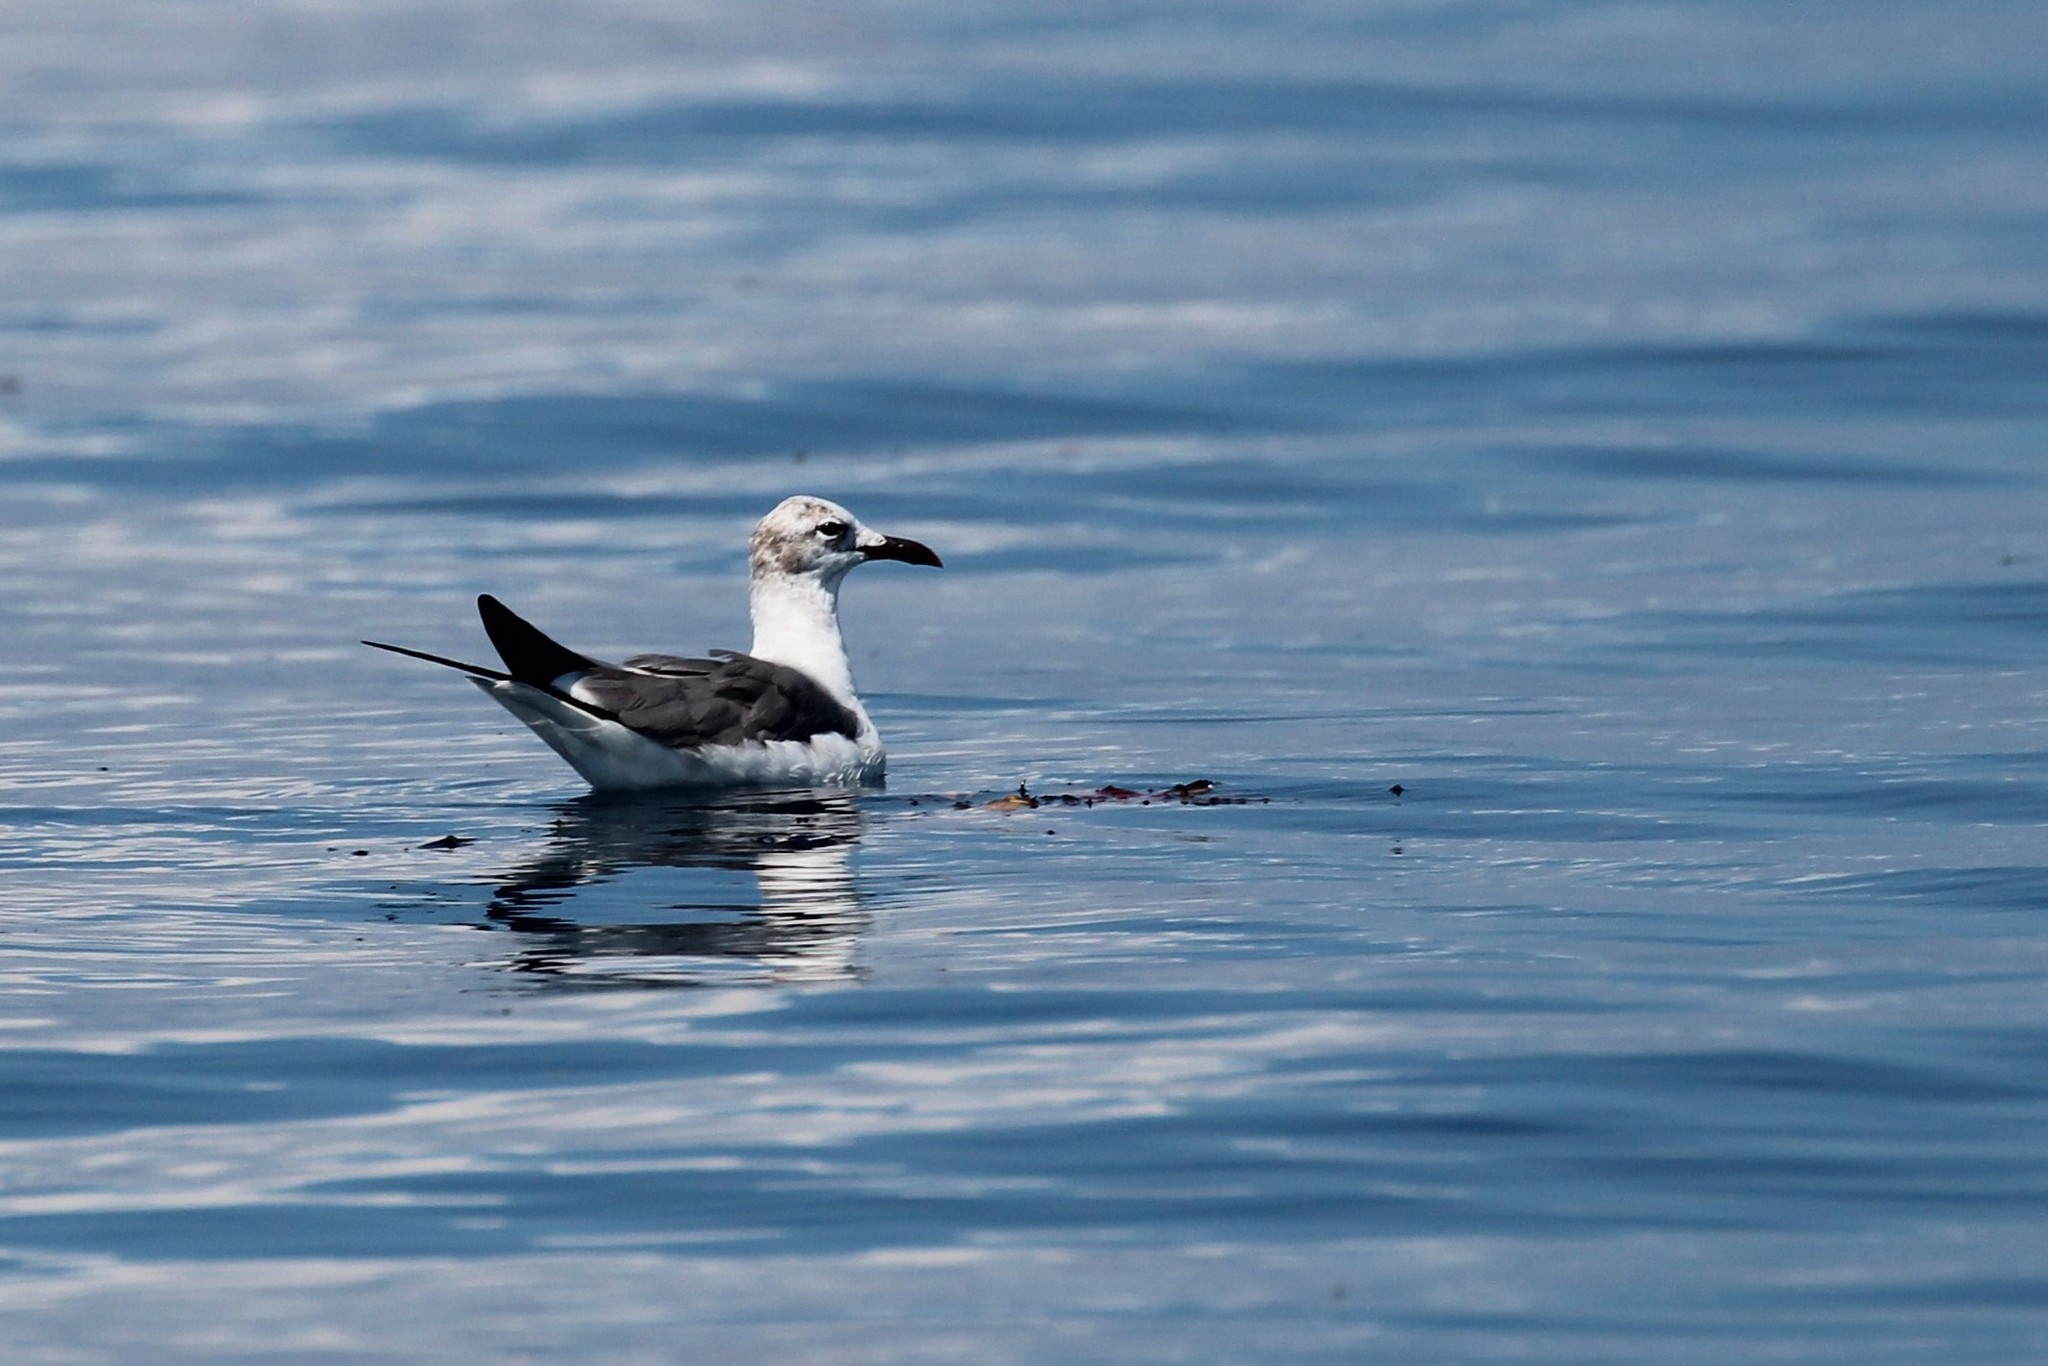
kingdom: Animalia
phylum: Chordata
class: Aves
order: Charadriiformes
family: Laridae
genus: Leucophaeus
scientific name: Leucophaeus atricilla
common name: Laughing gull
